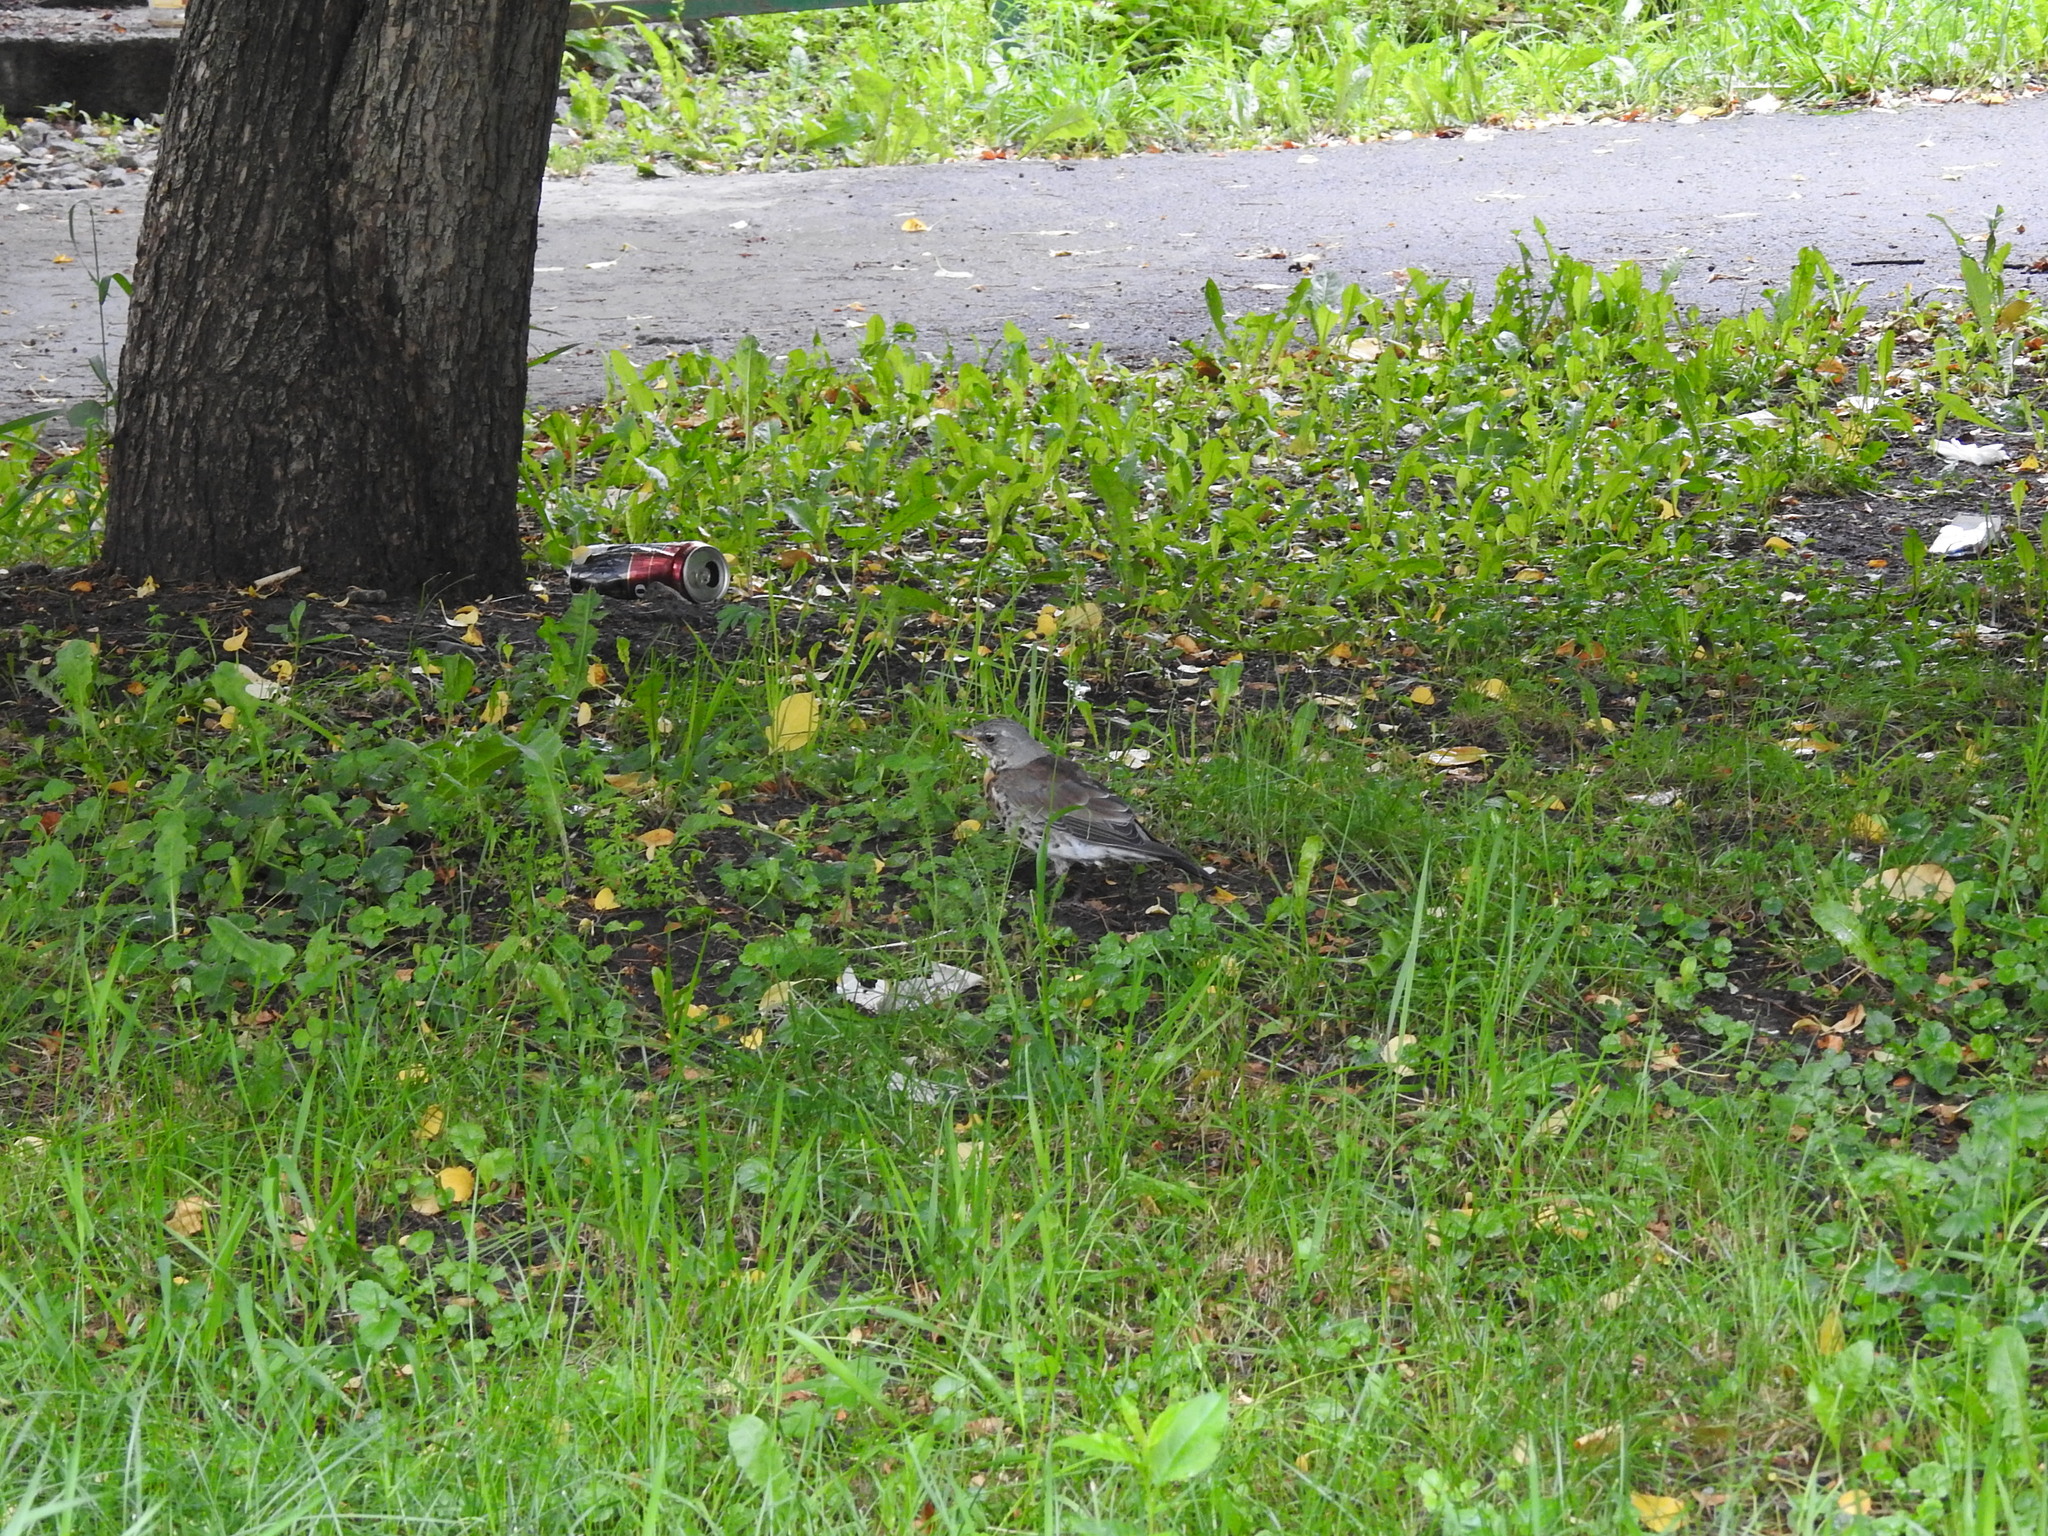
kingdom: Animalia
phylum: Chordata
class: Aves
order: Passeriformes
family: Turdidae
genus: Turdus
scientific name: Turdus pilaris
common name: Fieldfare
